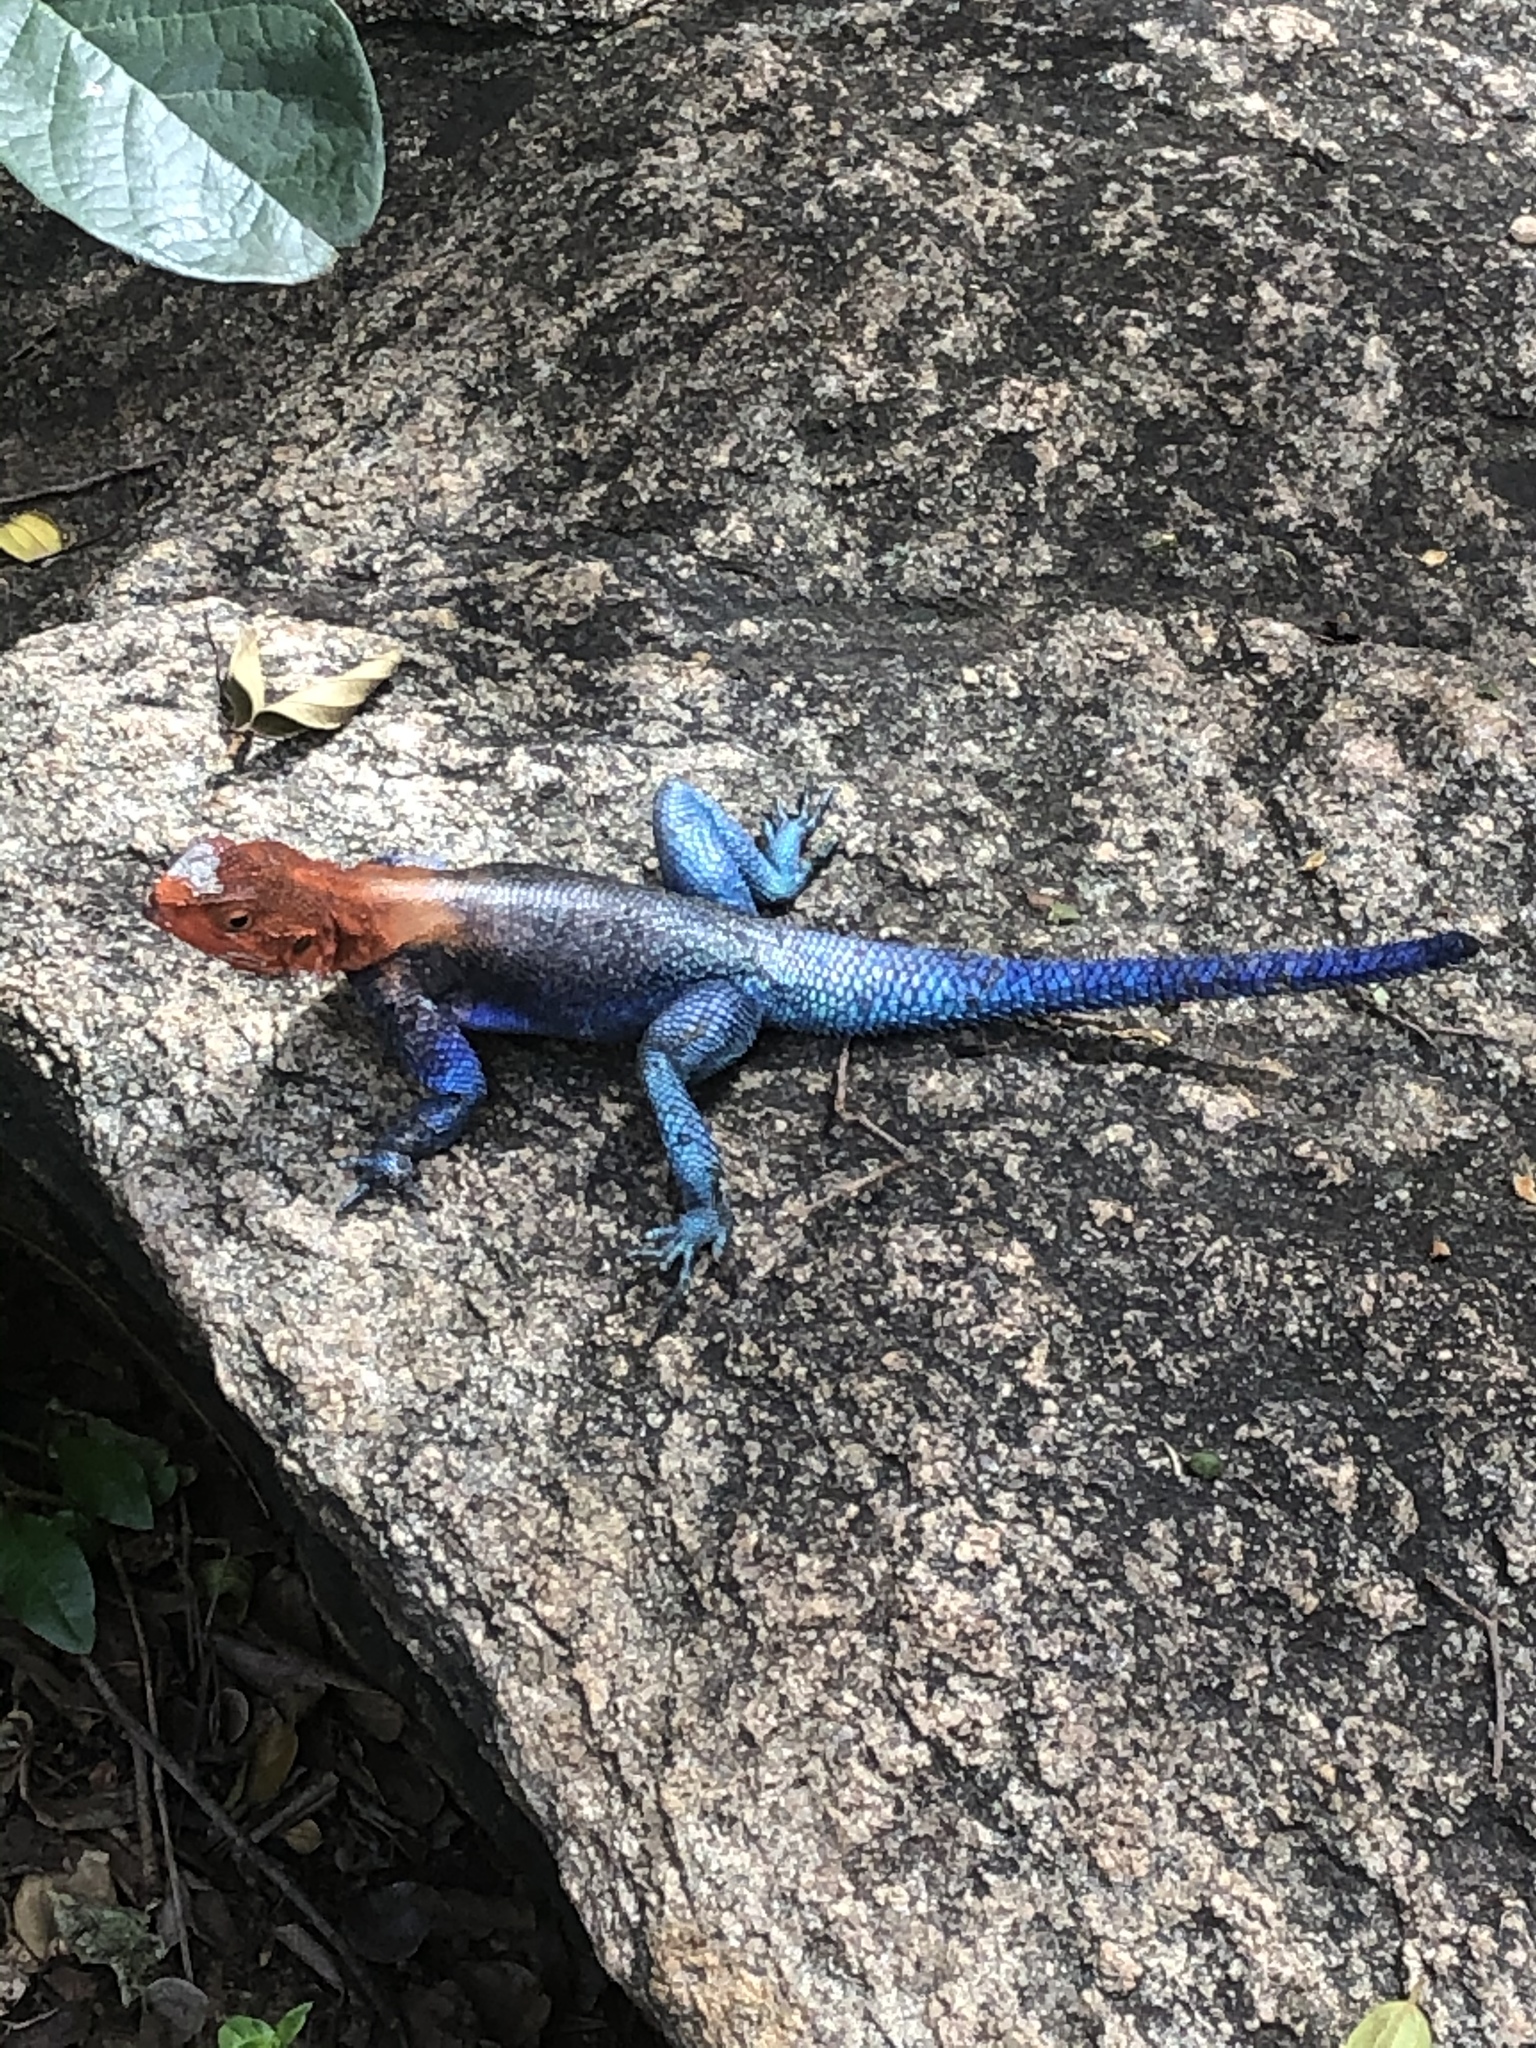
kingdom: Animalia
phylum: Chordata
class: Squamata
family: Agamidae
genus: Agama
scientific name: Agama dodomae
